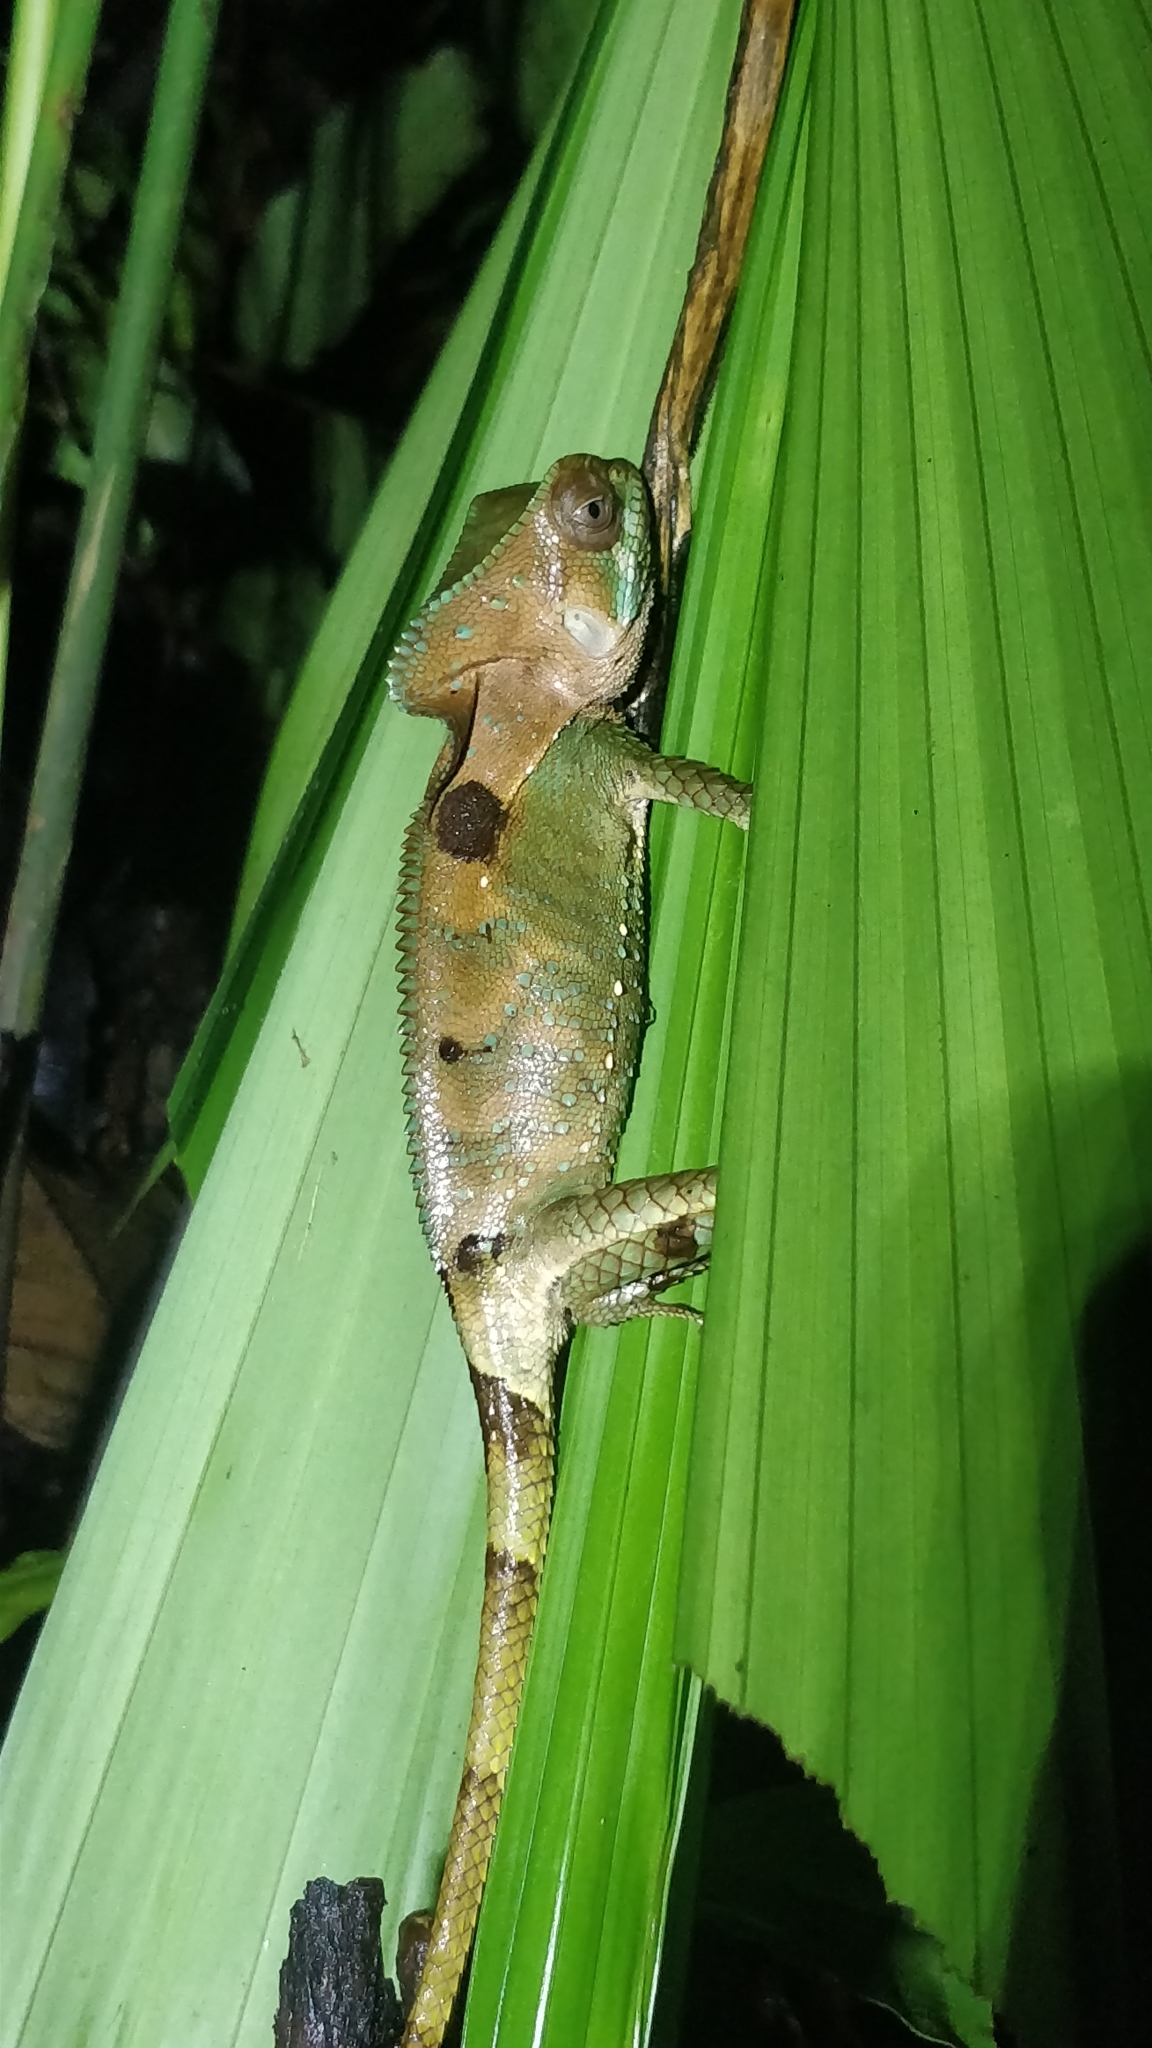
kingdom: Animalia
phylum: Chordata
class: Squamata
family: Corytophanidae
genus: Corytophanes
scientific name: Corytophanes cristatus
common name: Smooth helmeted iguana
